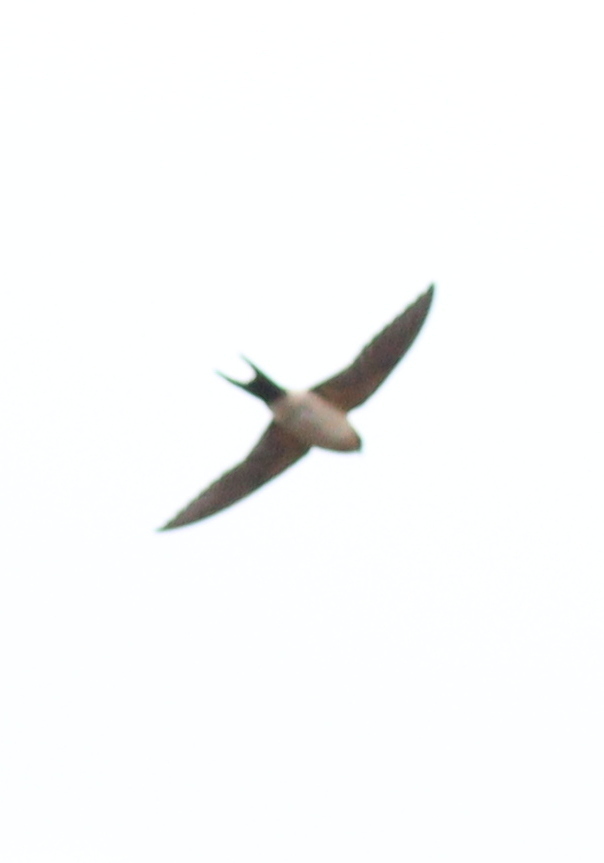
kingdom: Animalia
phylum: Chordata
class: Aves
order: Passeriformes
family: Hirundinidae
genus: Cecropis
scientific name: Cecropis daurica
